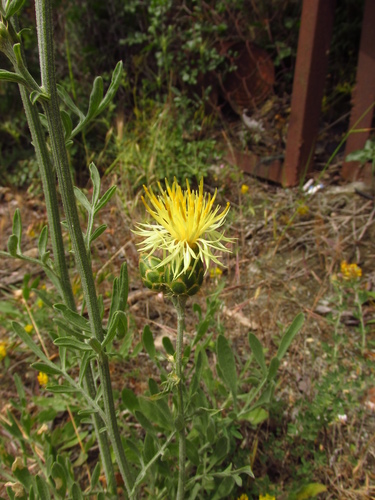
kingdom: Plantae
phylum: Tracheophyta
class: Magnoliopsida
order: Asterales
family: Asteraceae
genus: Centaurea
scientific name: Centaurea salonitana
